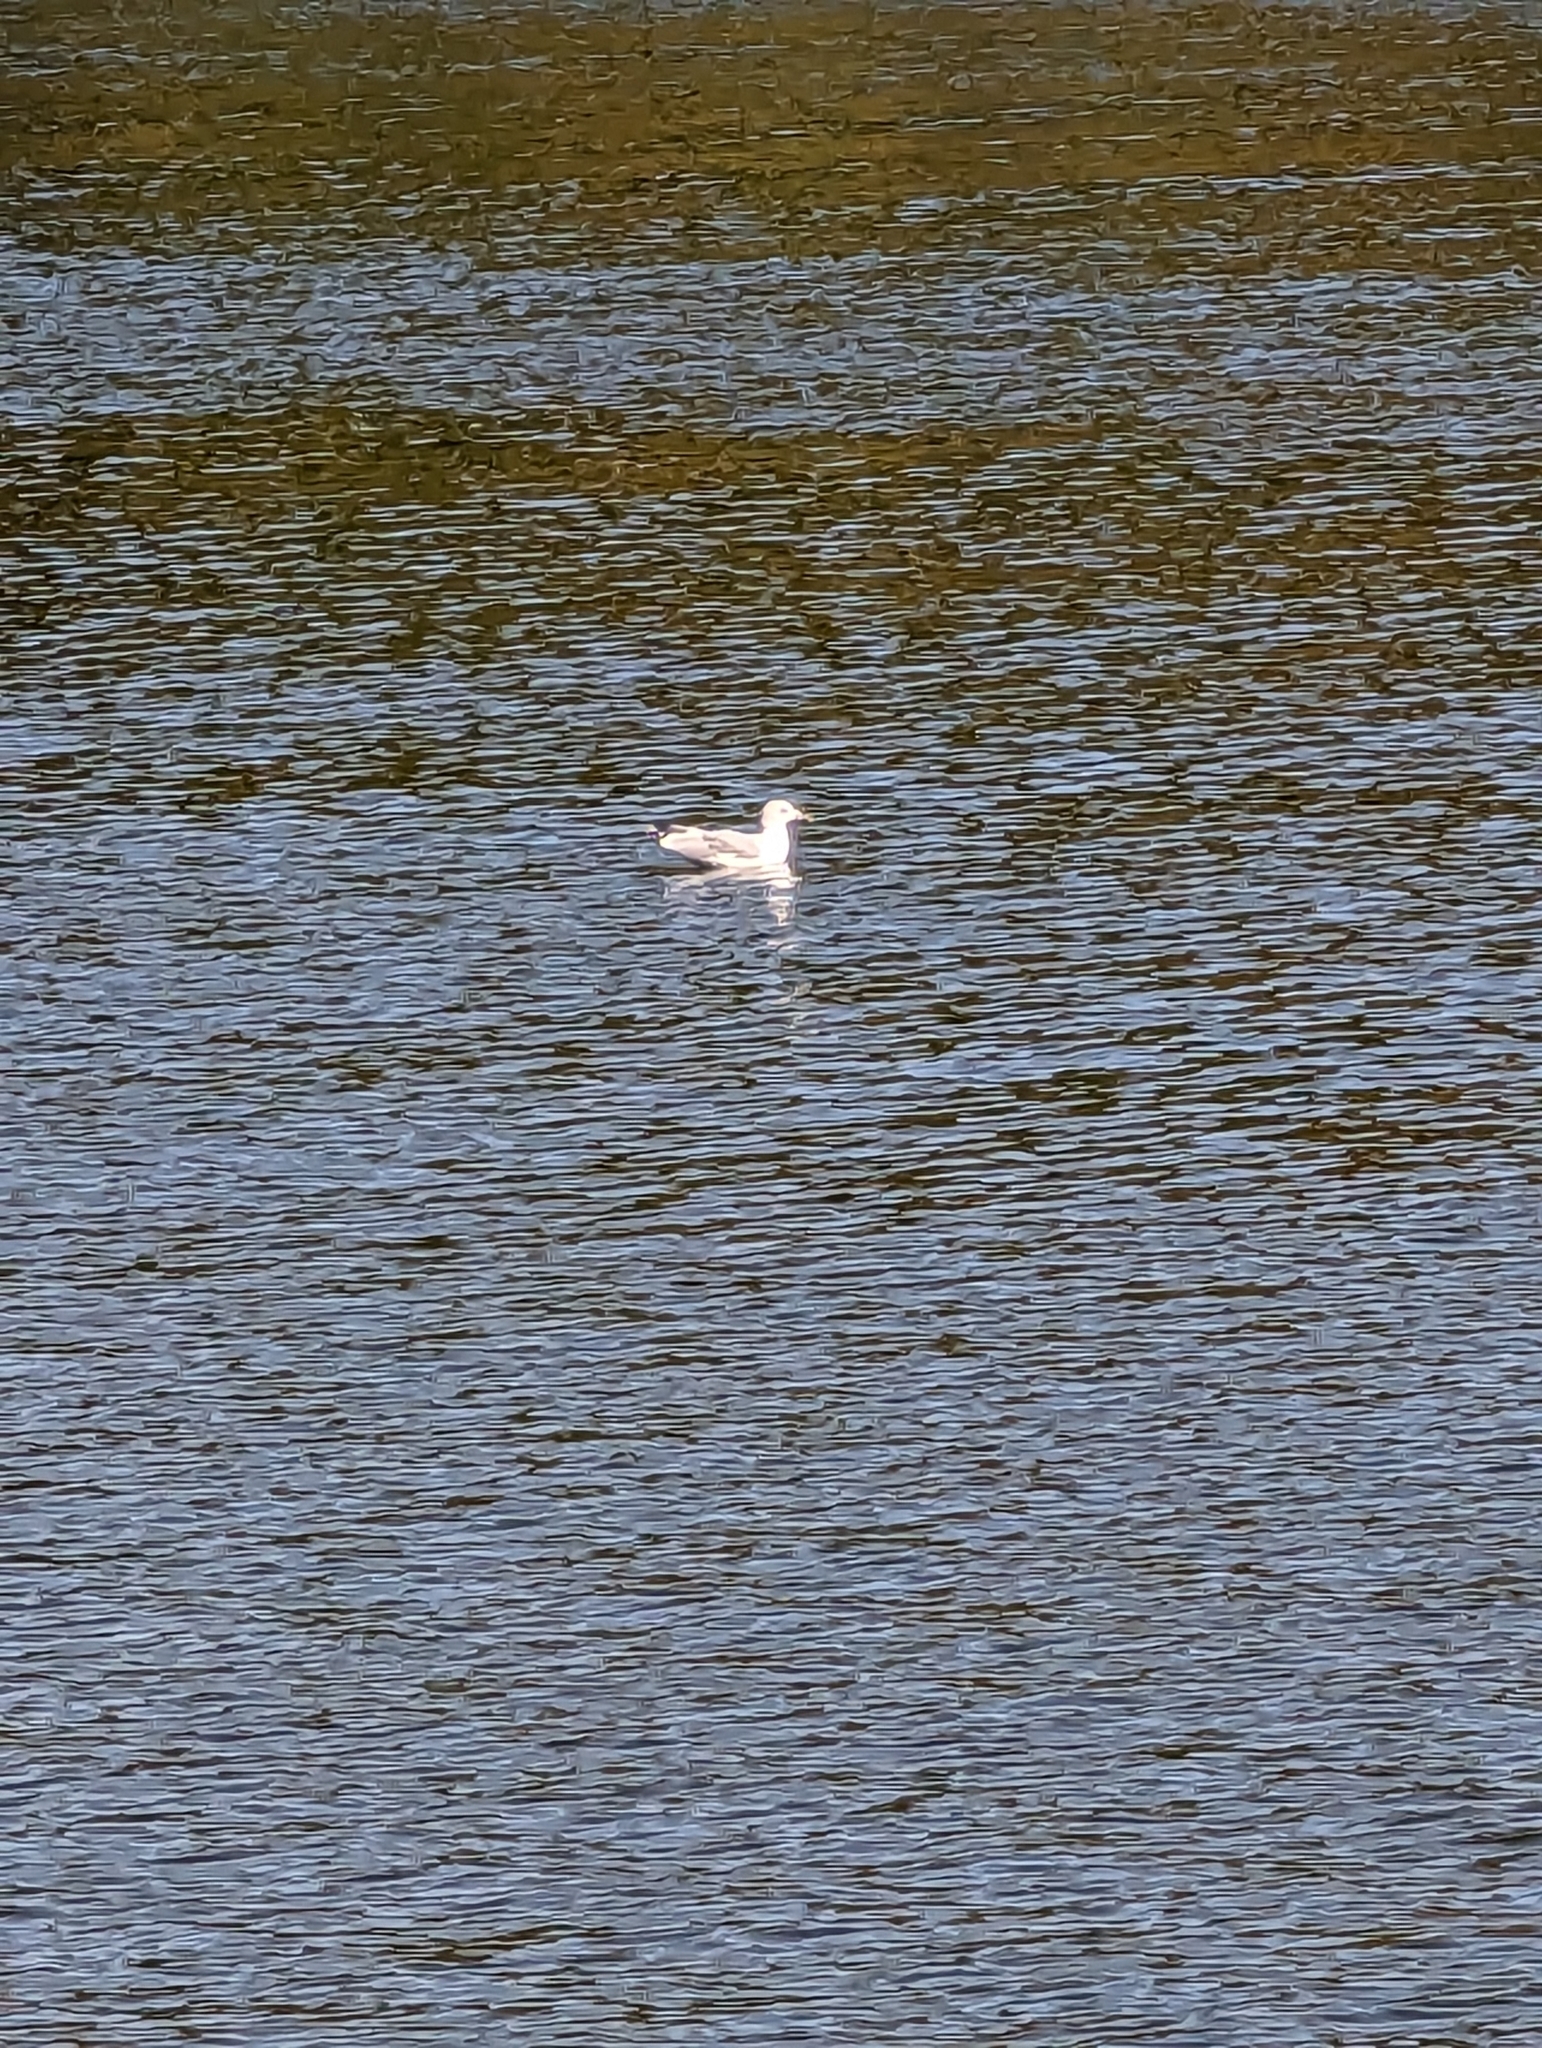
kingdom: Animalia
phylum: Chordata
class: Aves
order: Charadriiformes
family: Laridae
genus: Larus
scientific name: Larus delawarensis
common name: Ring-billed gull
